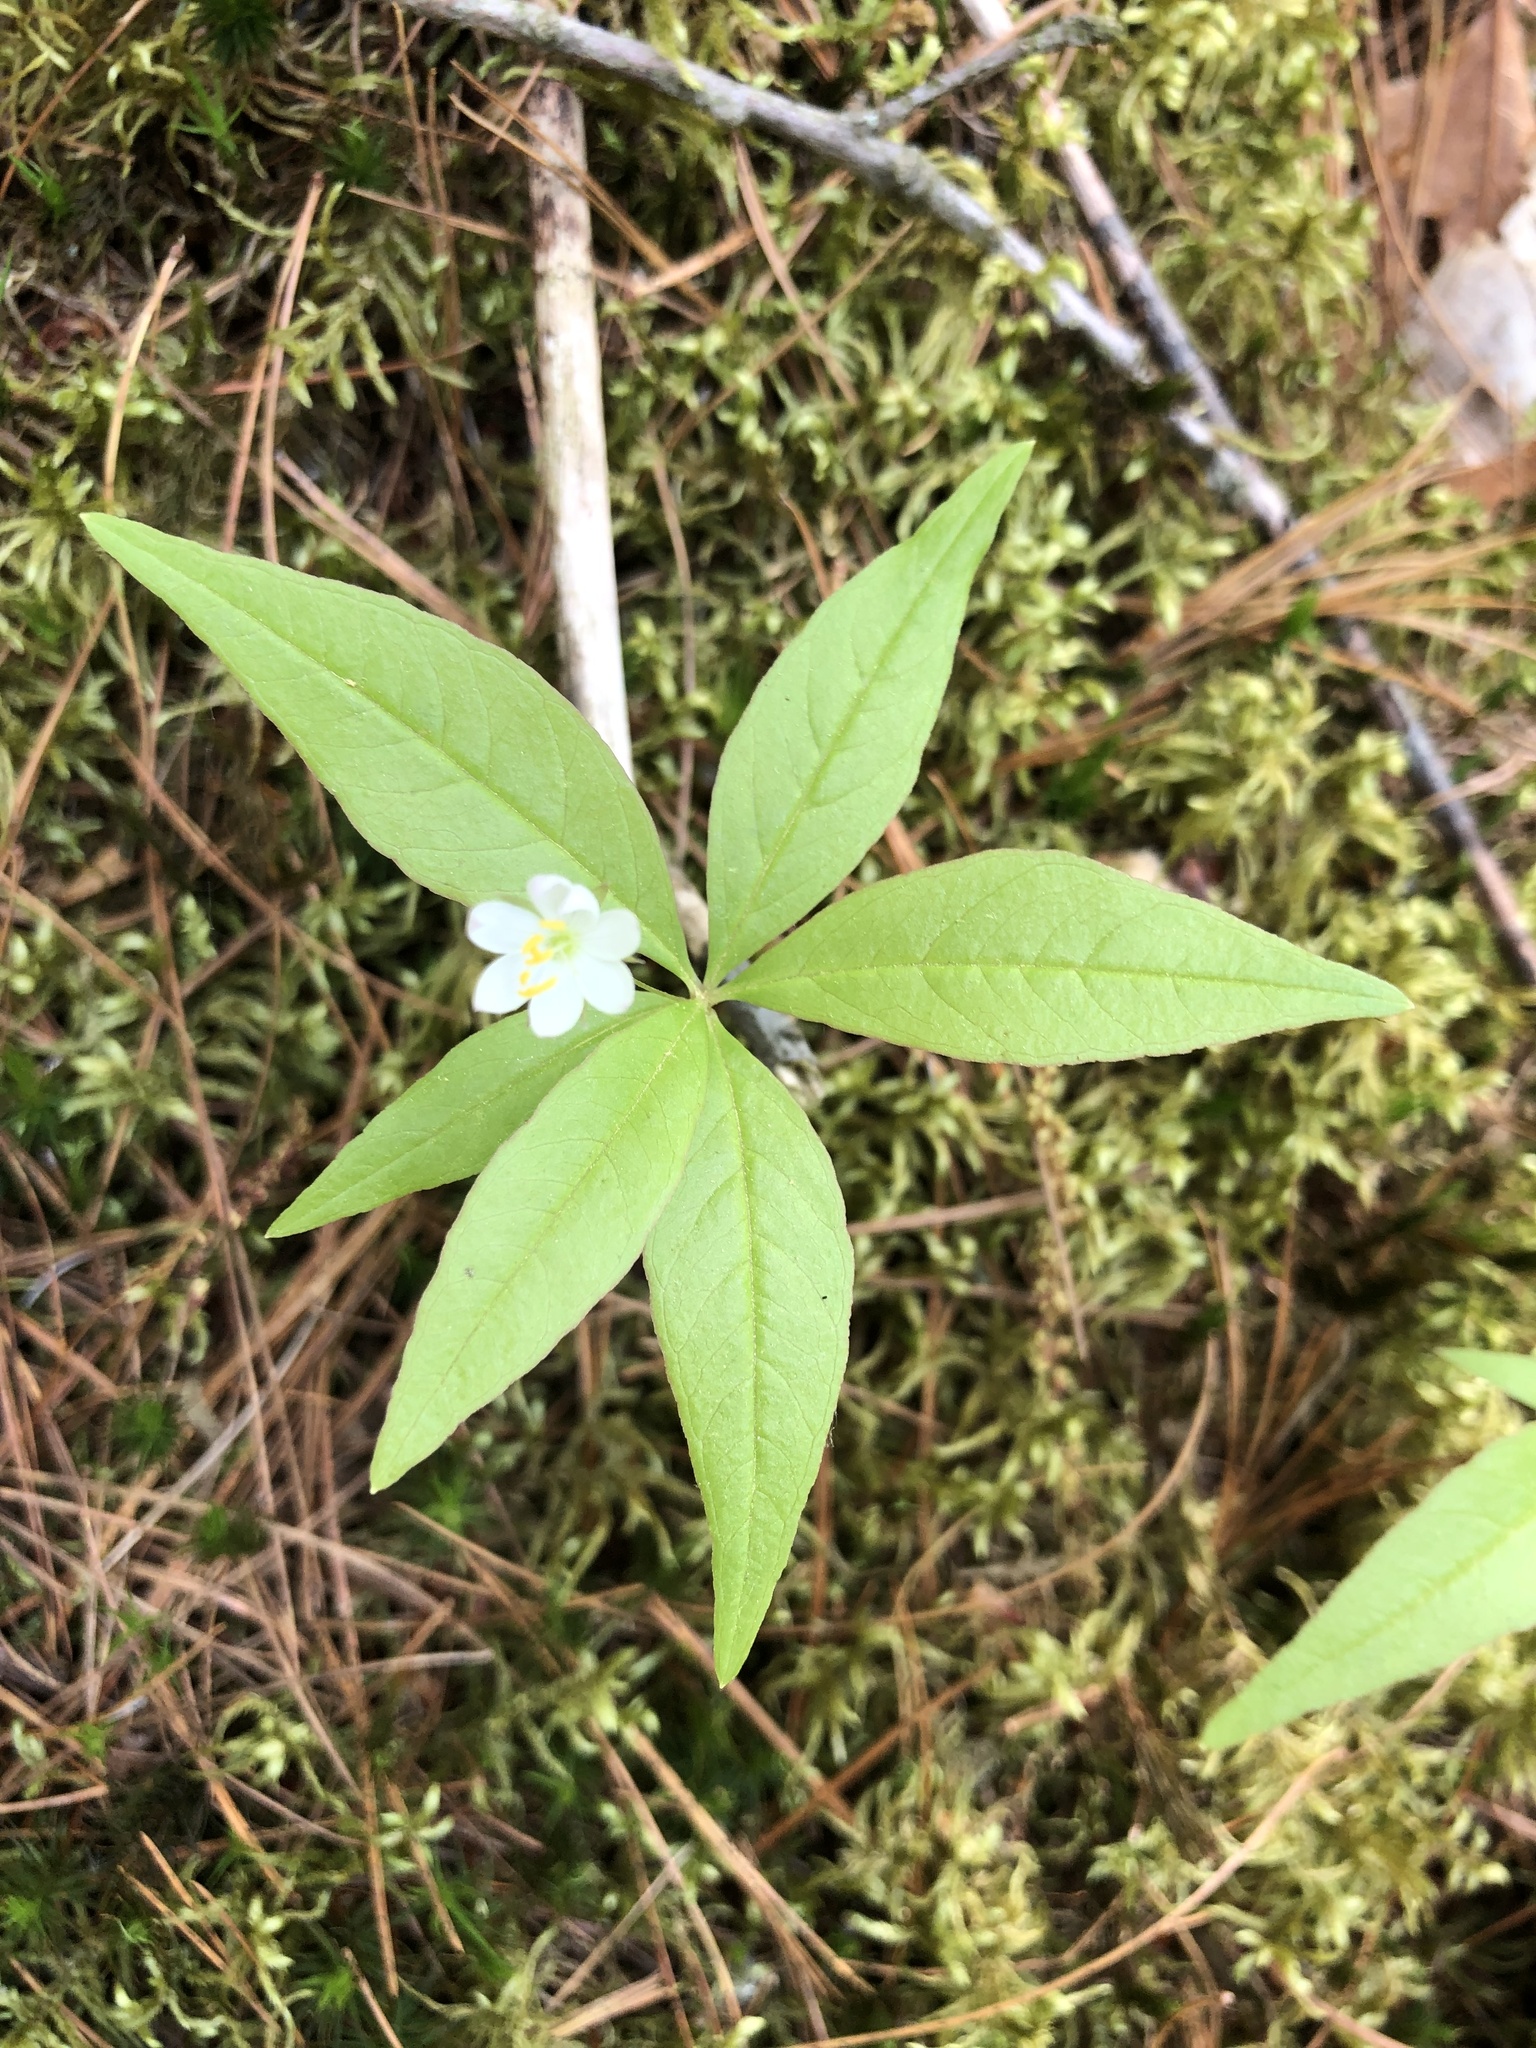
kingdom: Plantae
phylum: Tracheophyta
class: Magnoliopsida
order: Ericales
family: Primulaceae
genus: Lysimachia
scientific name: Lysimachia borealis
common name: American starflower
